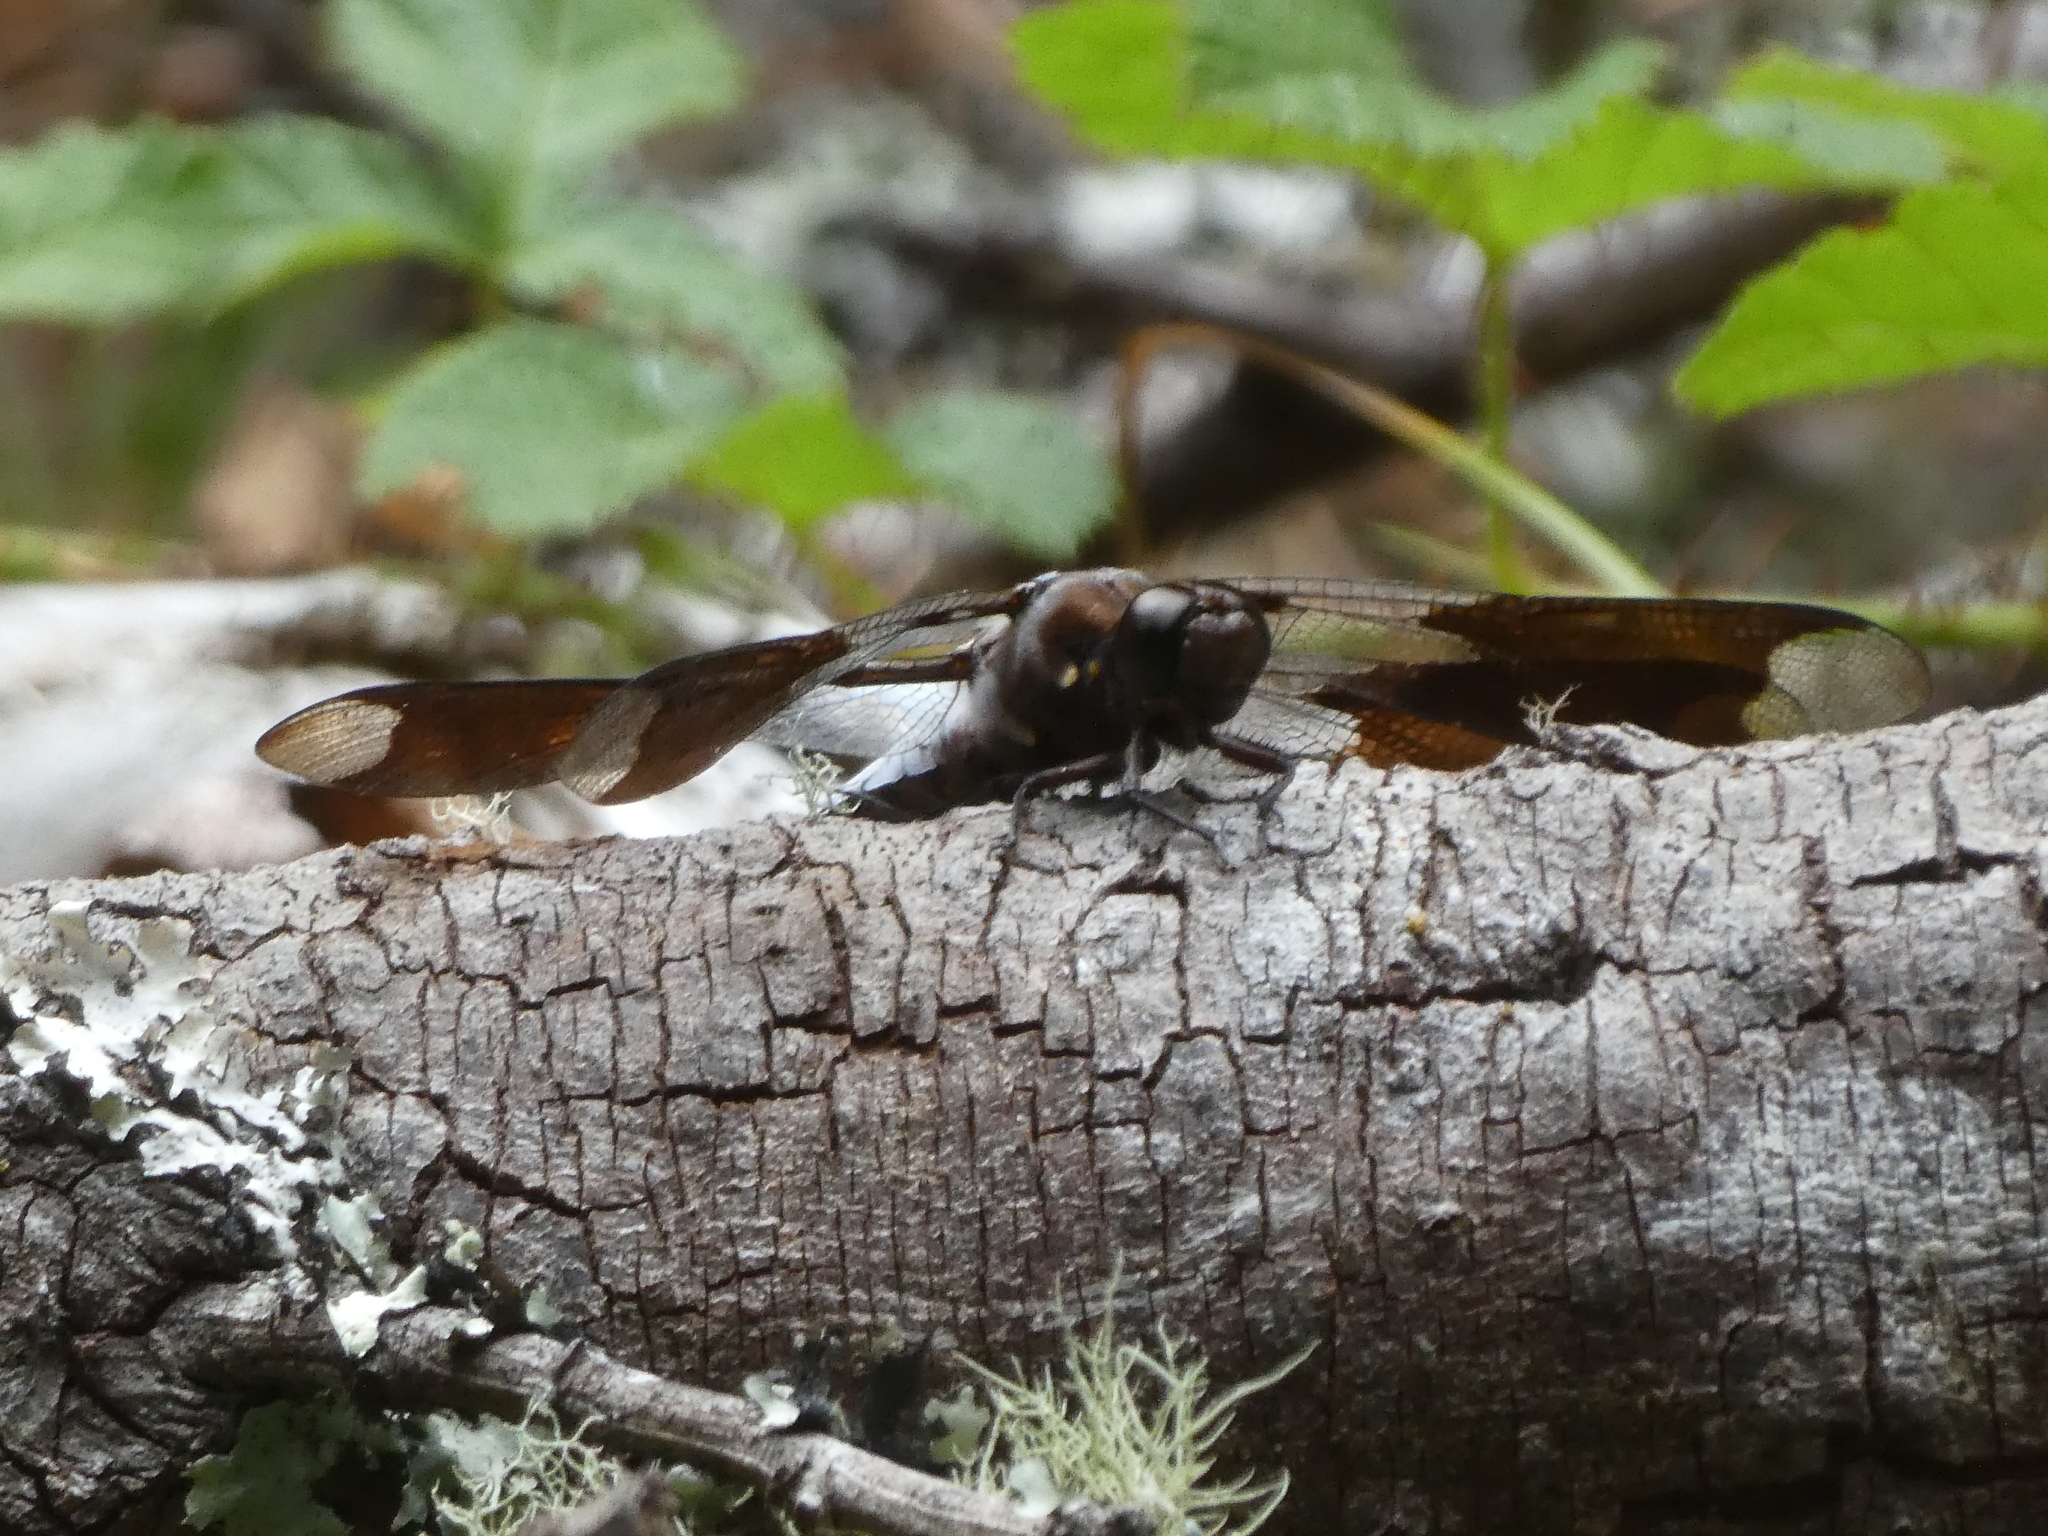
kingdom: Animalia
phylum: Arthropoda
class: Insecta
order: Odonata
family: Libellulidae
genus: Plathemis
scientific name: Plathemis lydia
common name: Common whitetail
